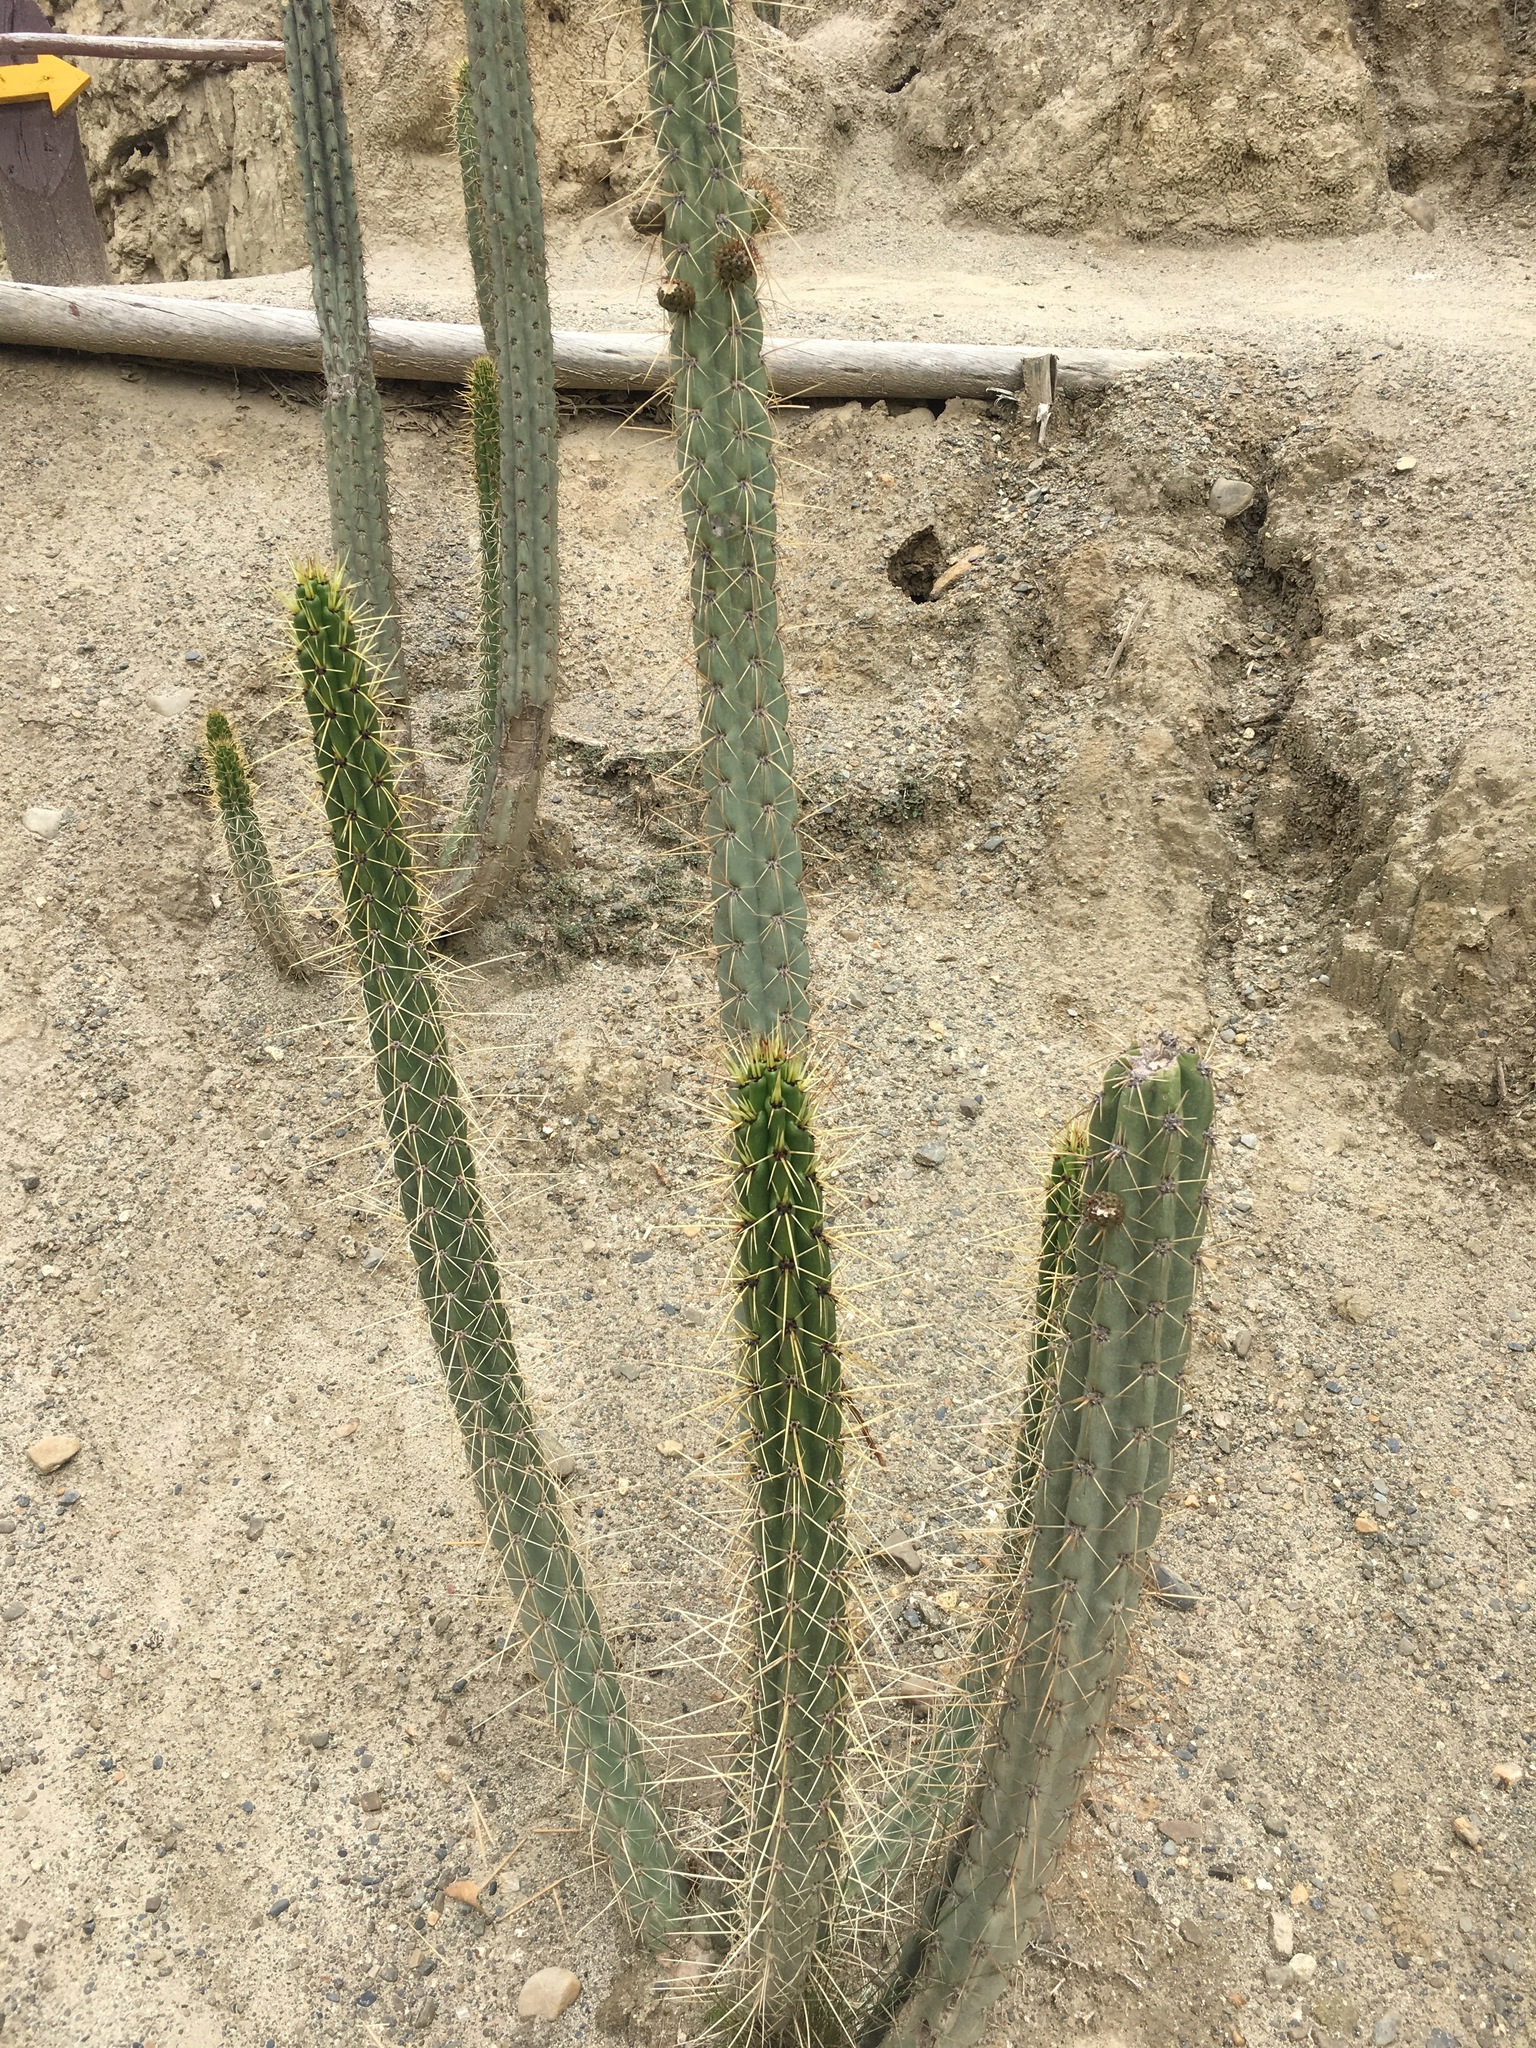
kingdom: Plantae
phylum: Tracheophyta
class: Magnoliopsida
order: Caryophyllales
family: Cactaceae
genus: Corryocactus
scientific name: Corryocactus melanotrichus
